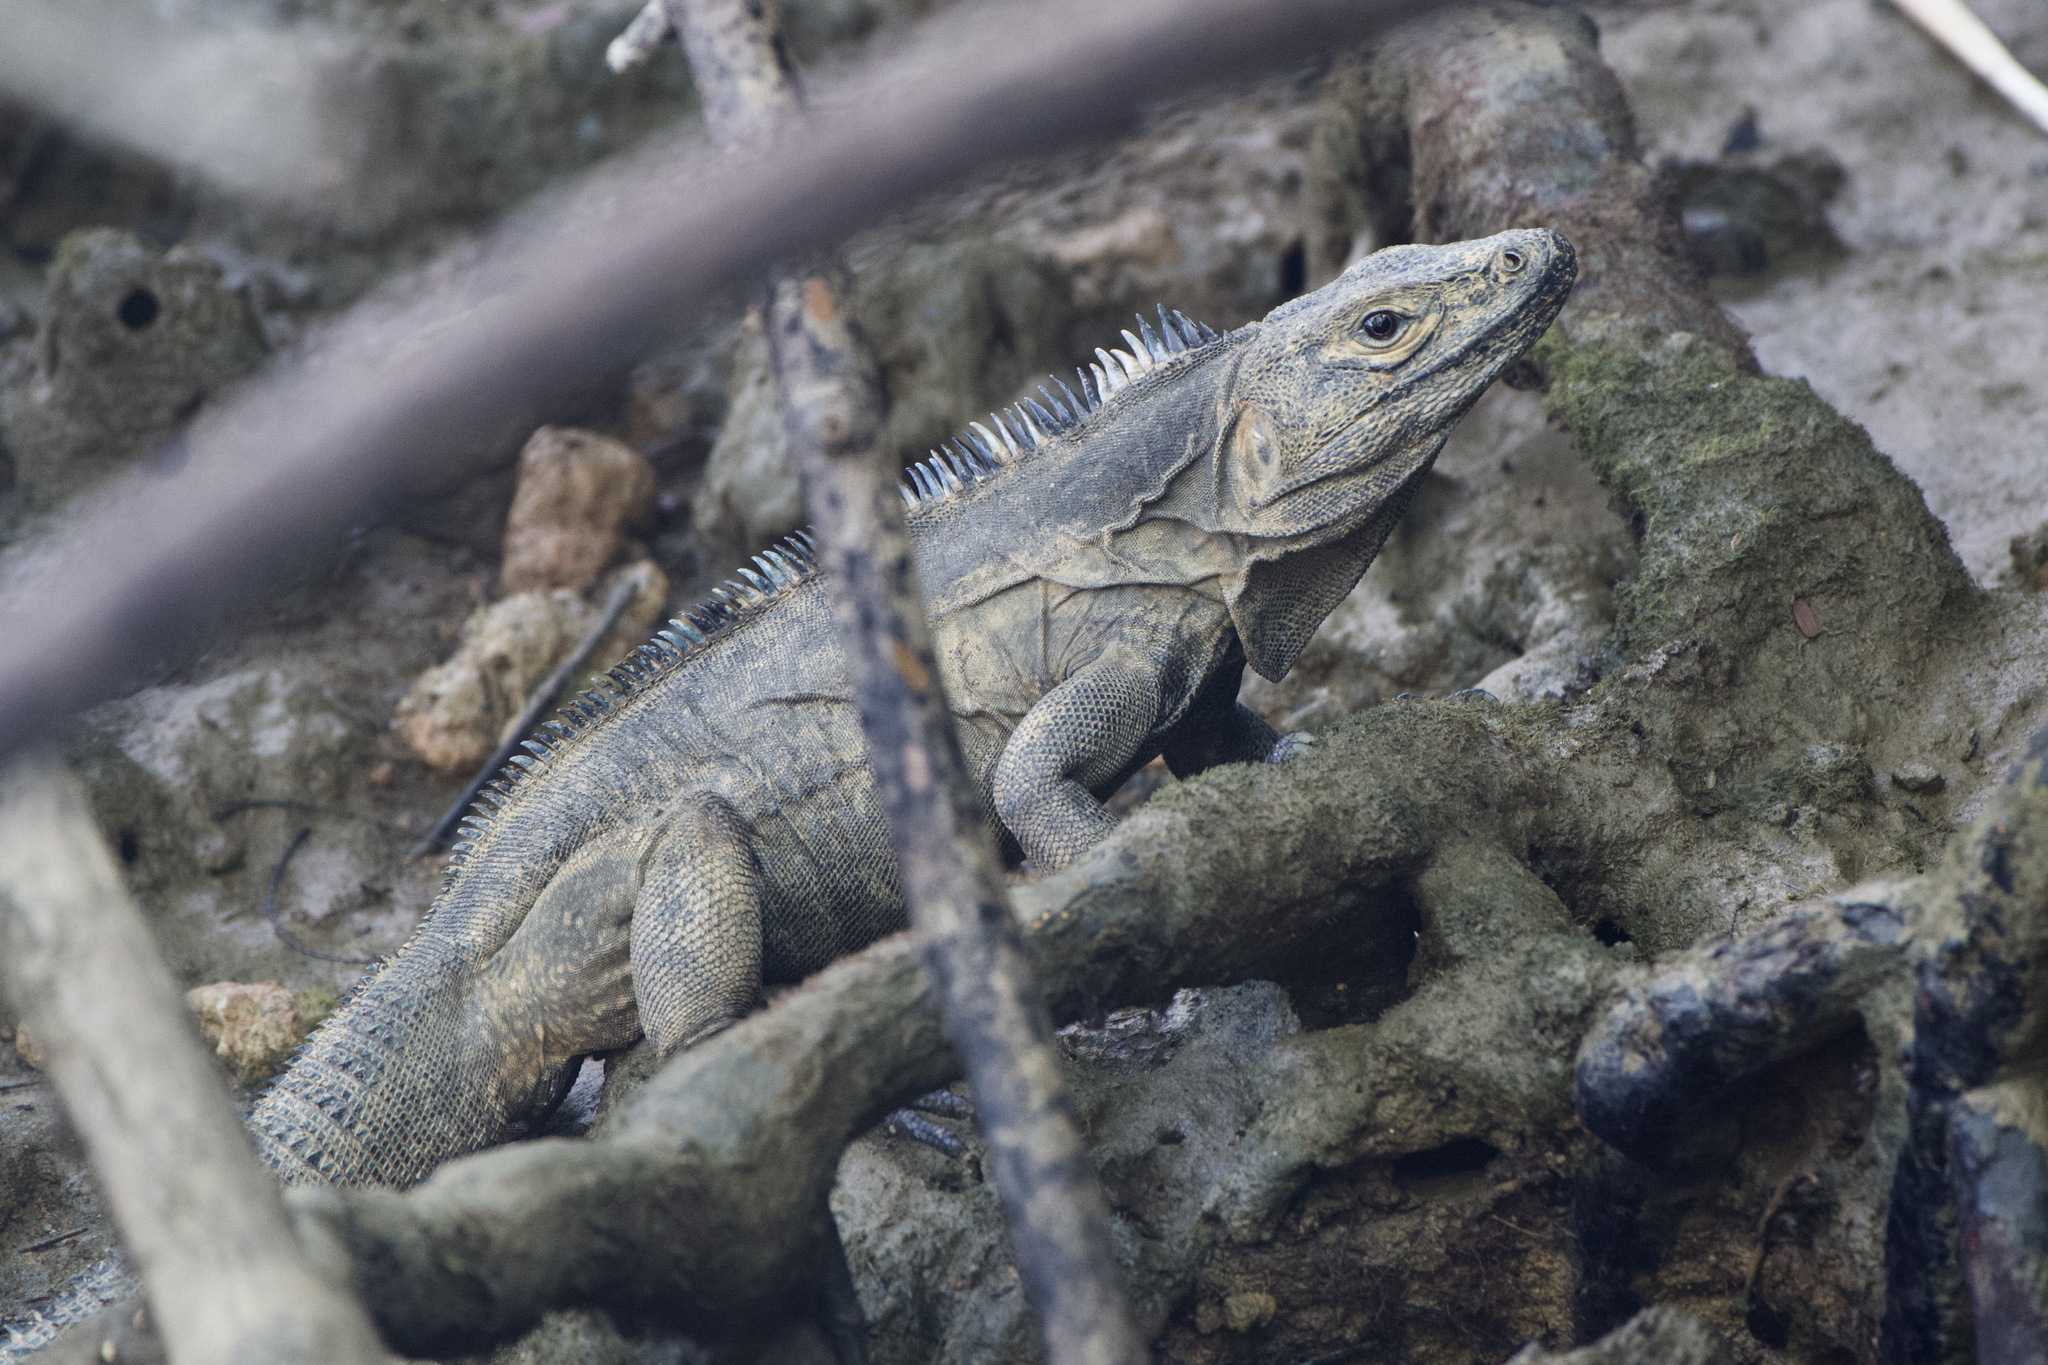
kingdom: Animalia
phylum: Chordata
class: Squamata
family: Iguanidae
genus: Ctenosaura
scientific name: Ctenosaura similis
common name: Black spiny-tailed iguana
